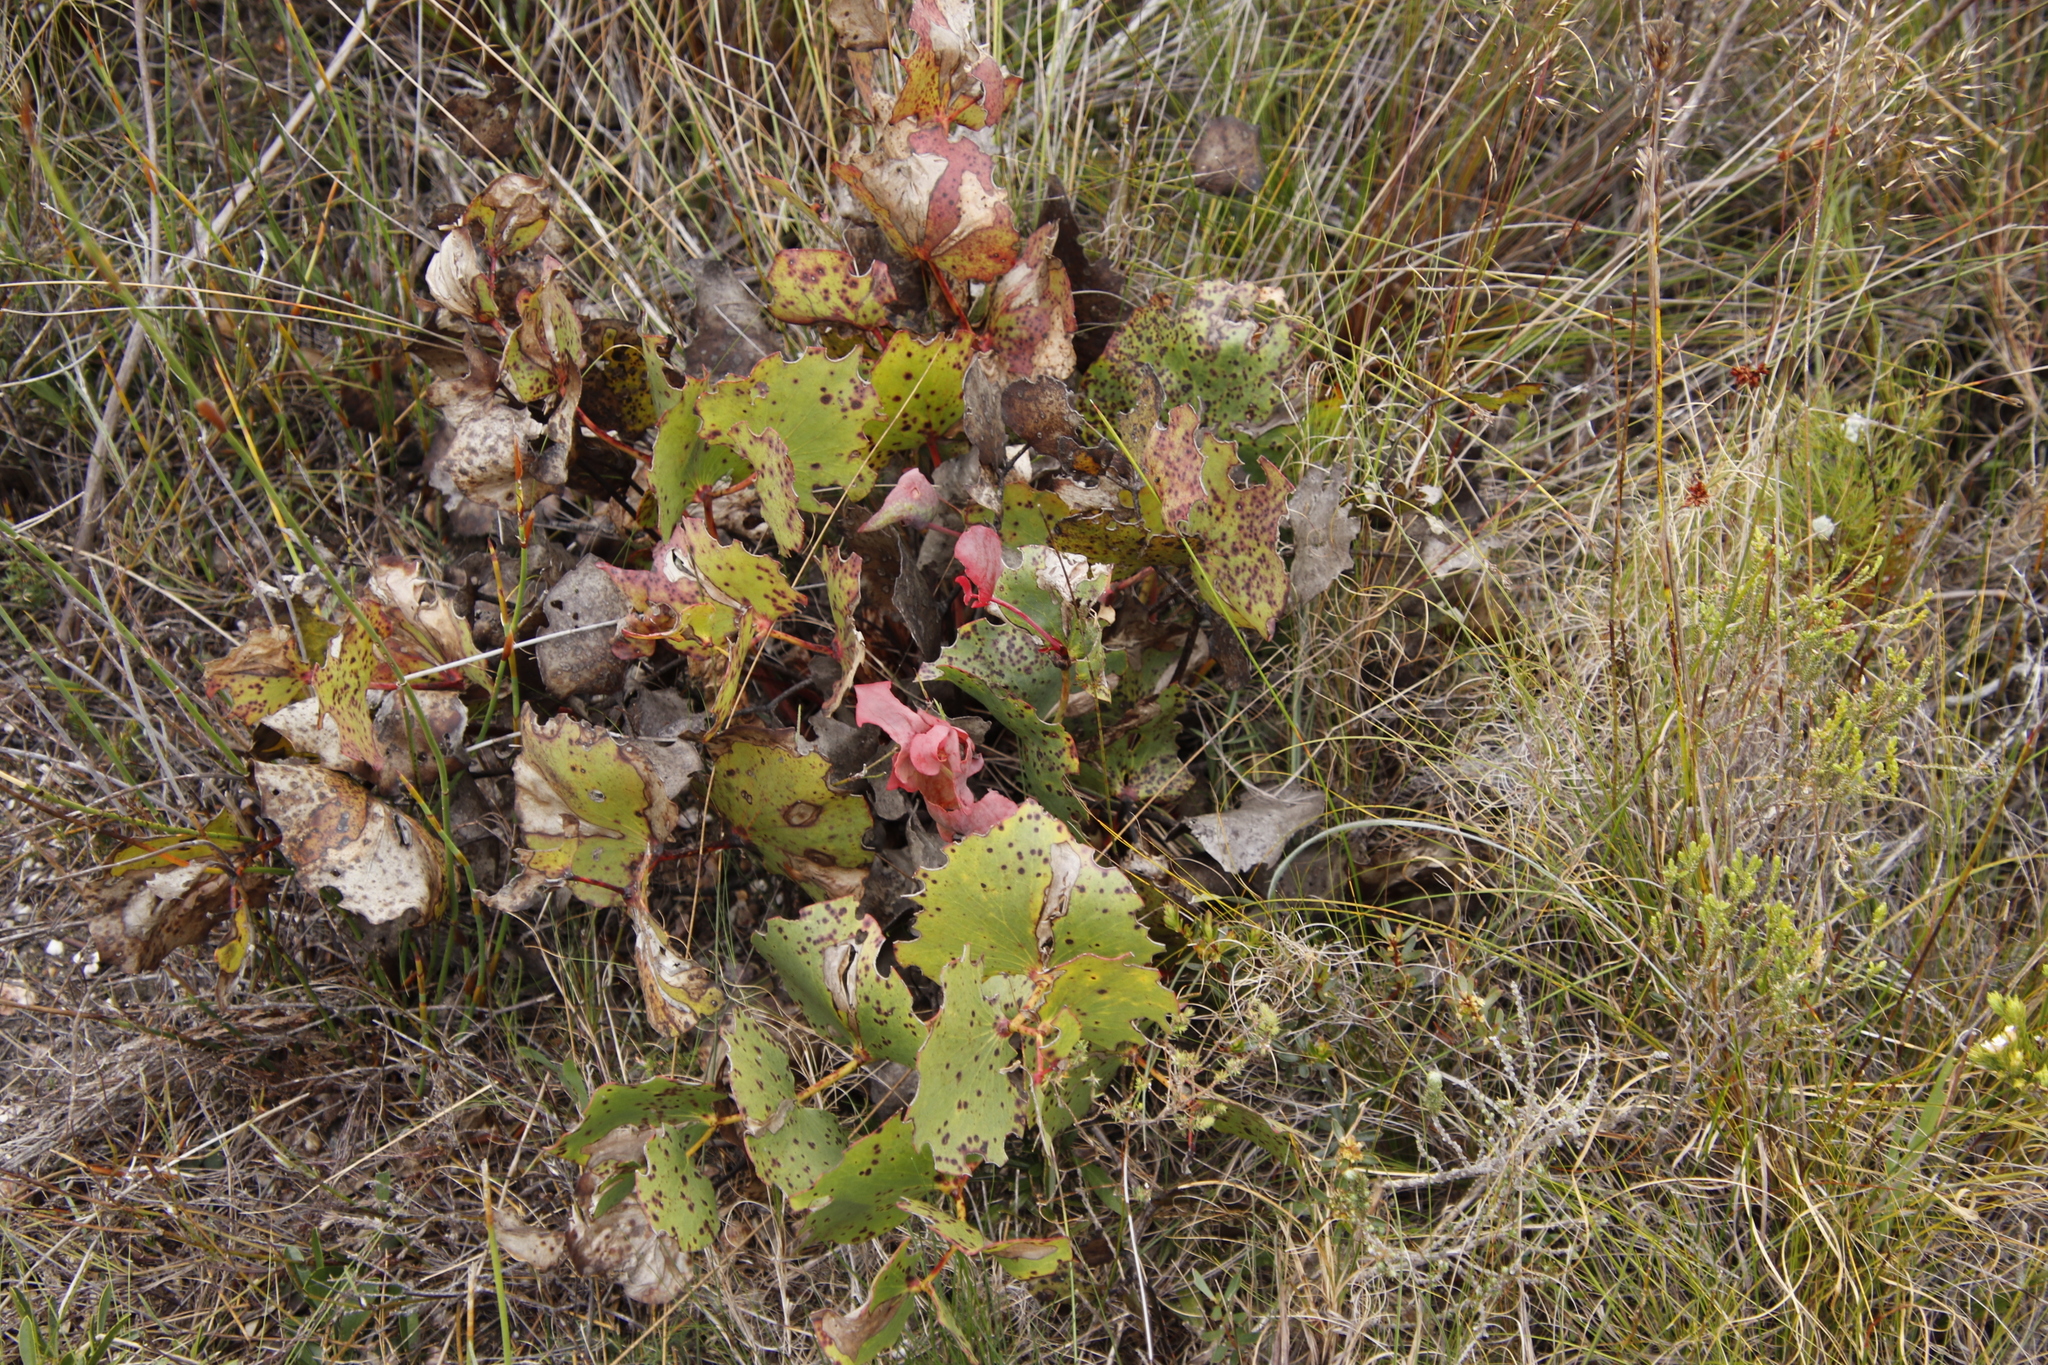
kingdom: Plantae
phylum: Tracheophyta
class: Magnoliopsida
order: Proteales
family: Proteaceae
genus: Protea
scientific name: Protea cordata
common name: Heart-leaf sugarbush
